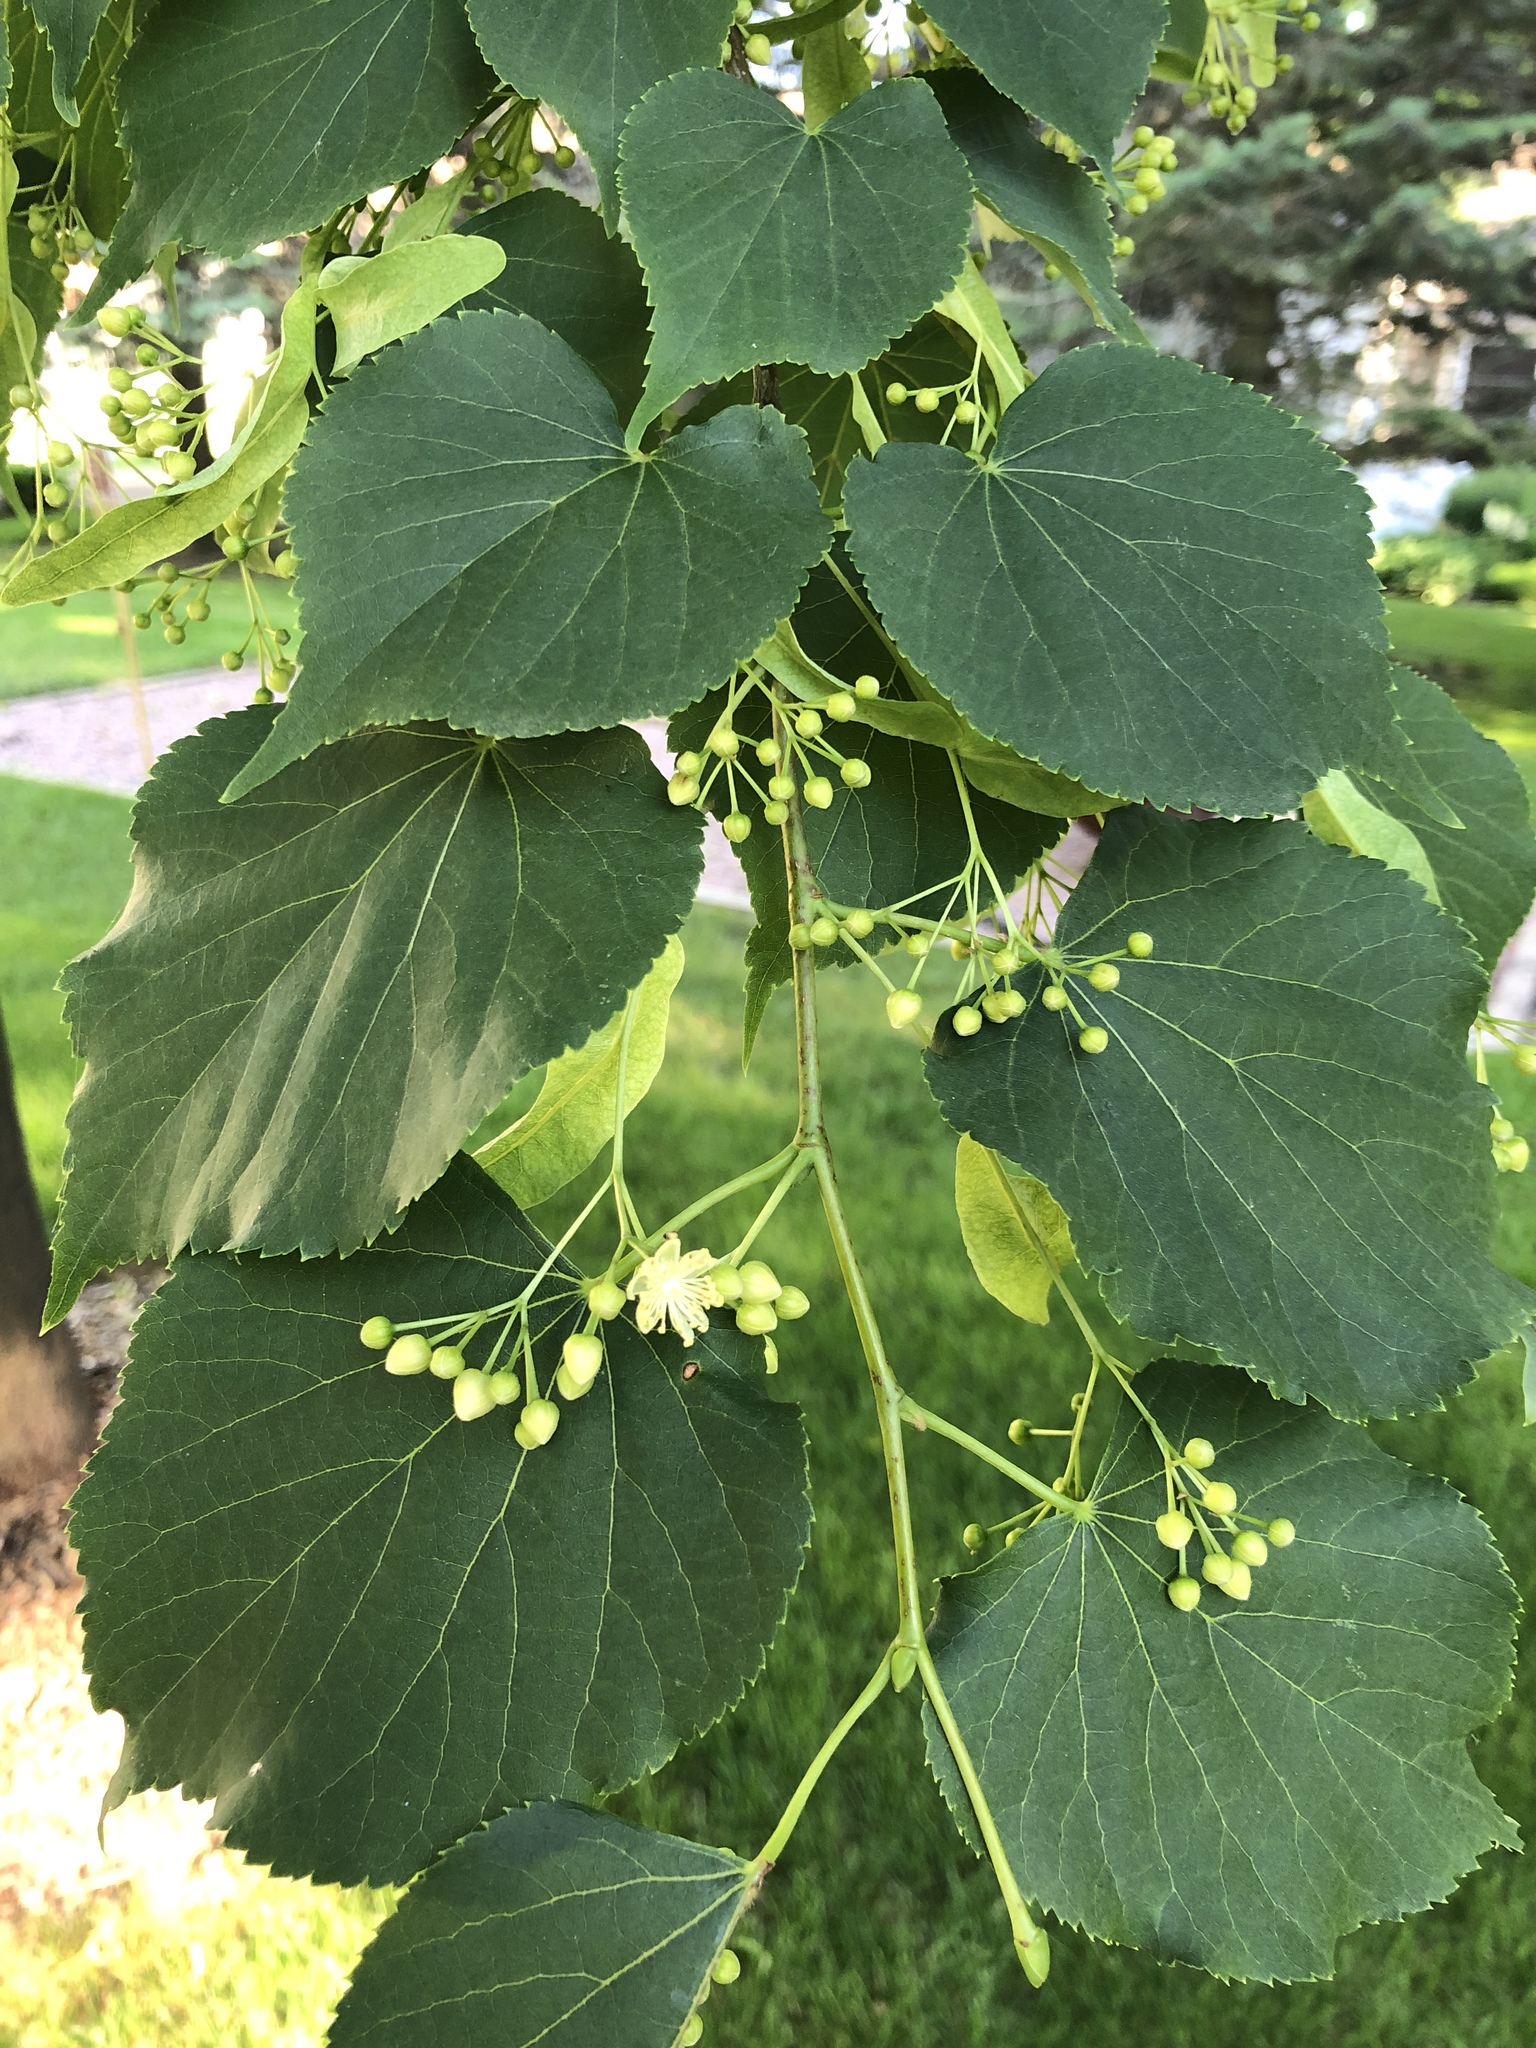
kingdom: Plantae
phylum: Tracheophyta
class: Magnoliopsida
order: Malvales
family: Malvaceae
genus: Tilia
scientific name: Tilia americana
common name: Basswood
